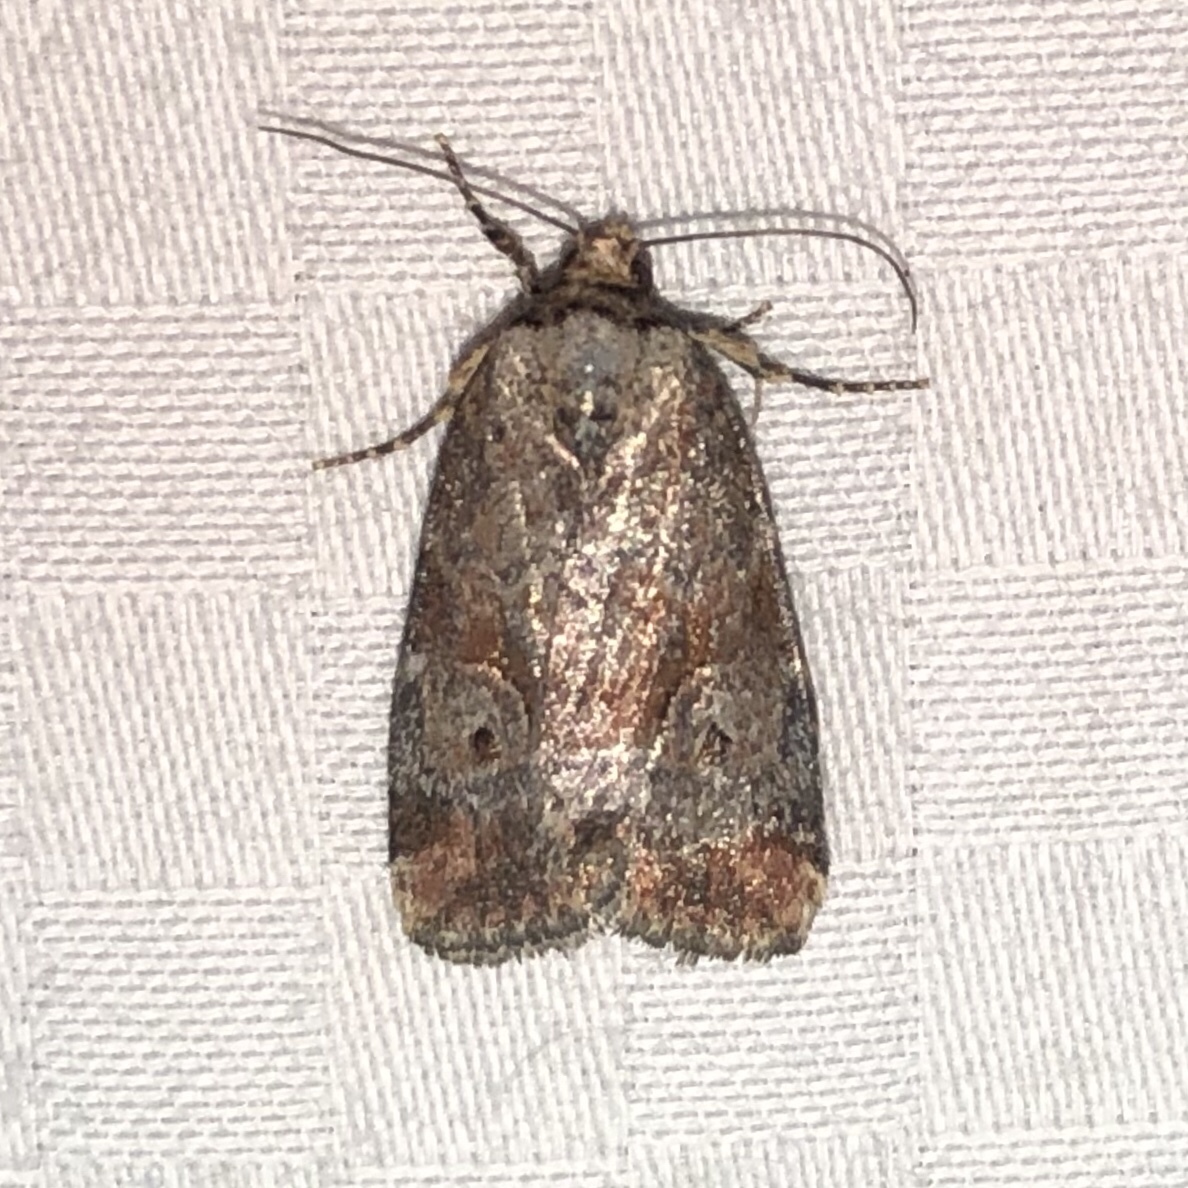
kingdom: Animalia
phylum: Arthropoda
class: Insecta
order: Lepidoptera
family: Noctuidae
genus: Elaphria
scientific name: Elaphria alapallida
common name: Pale-winged midget
